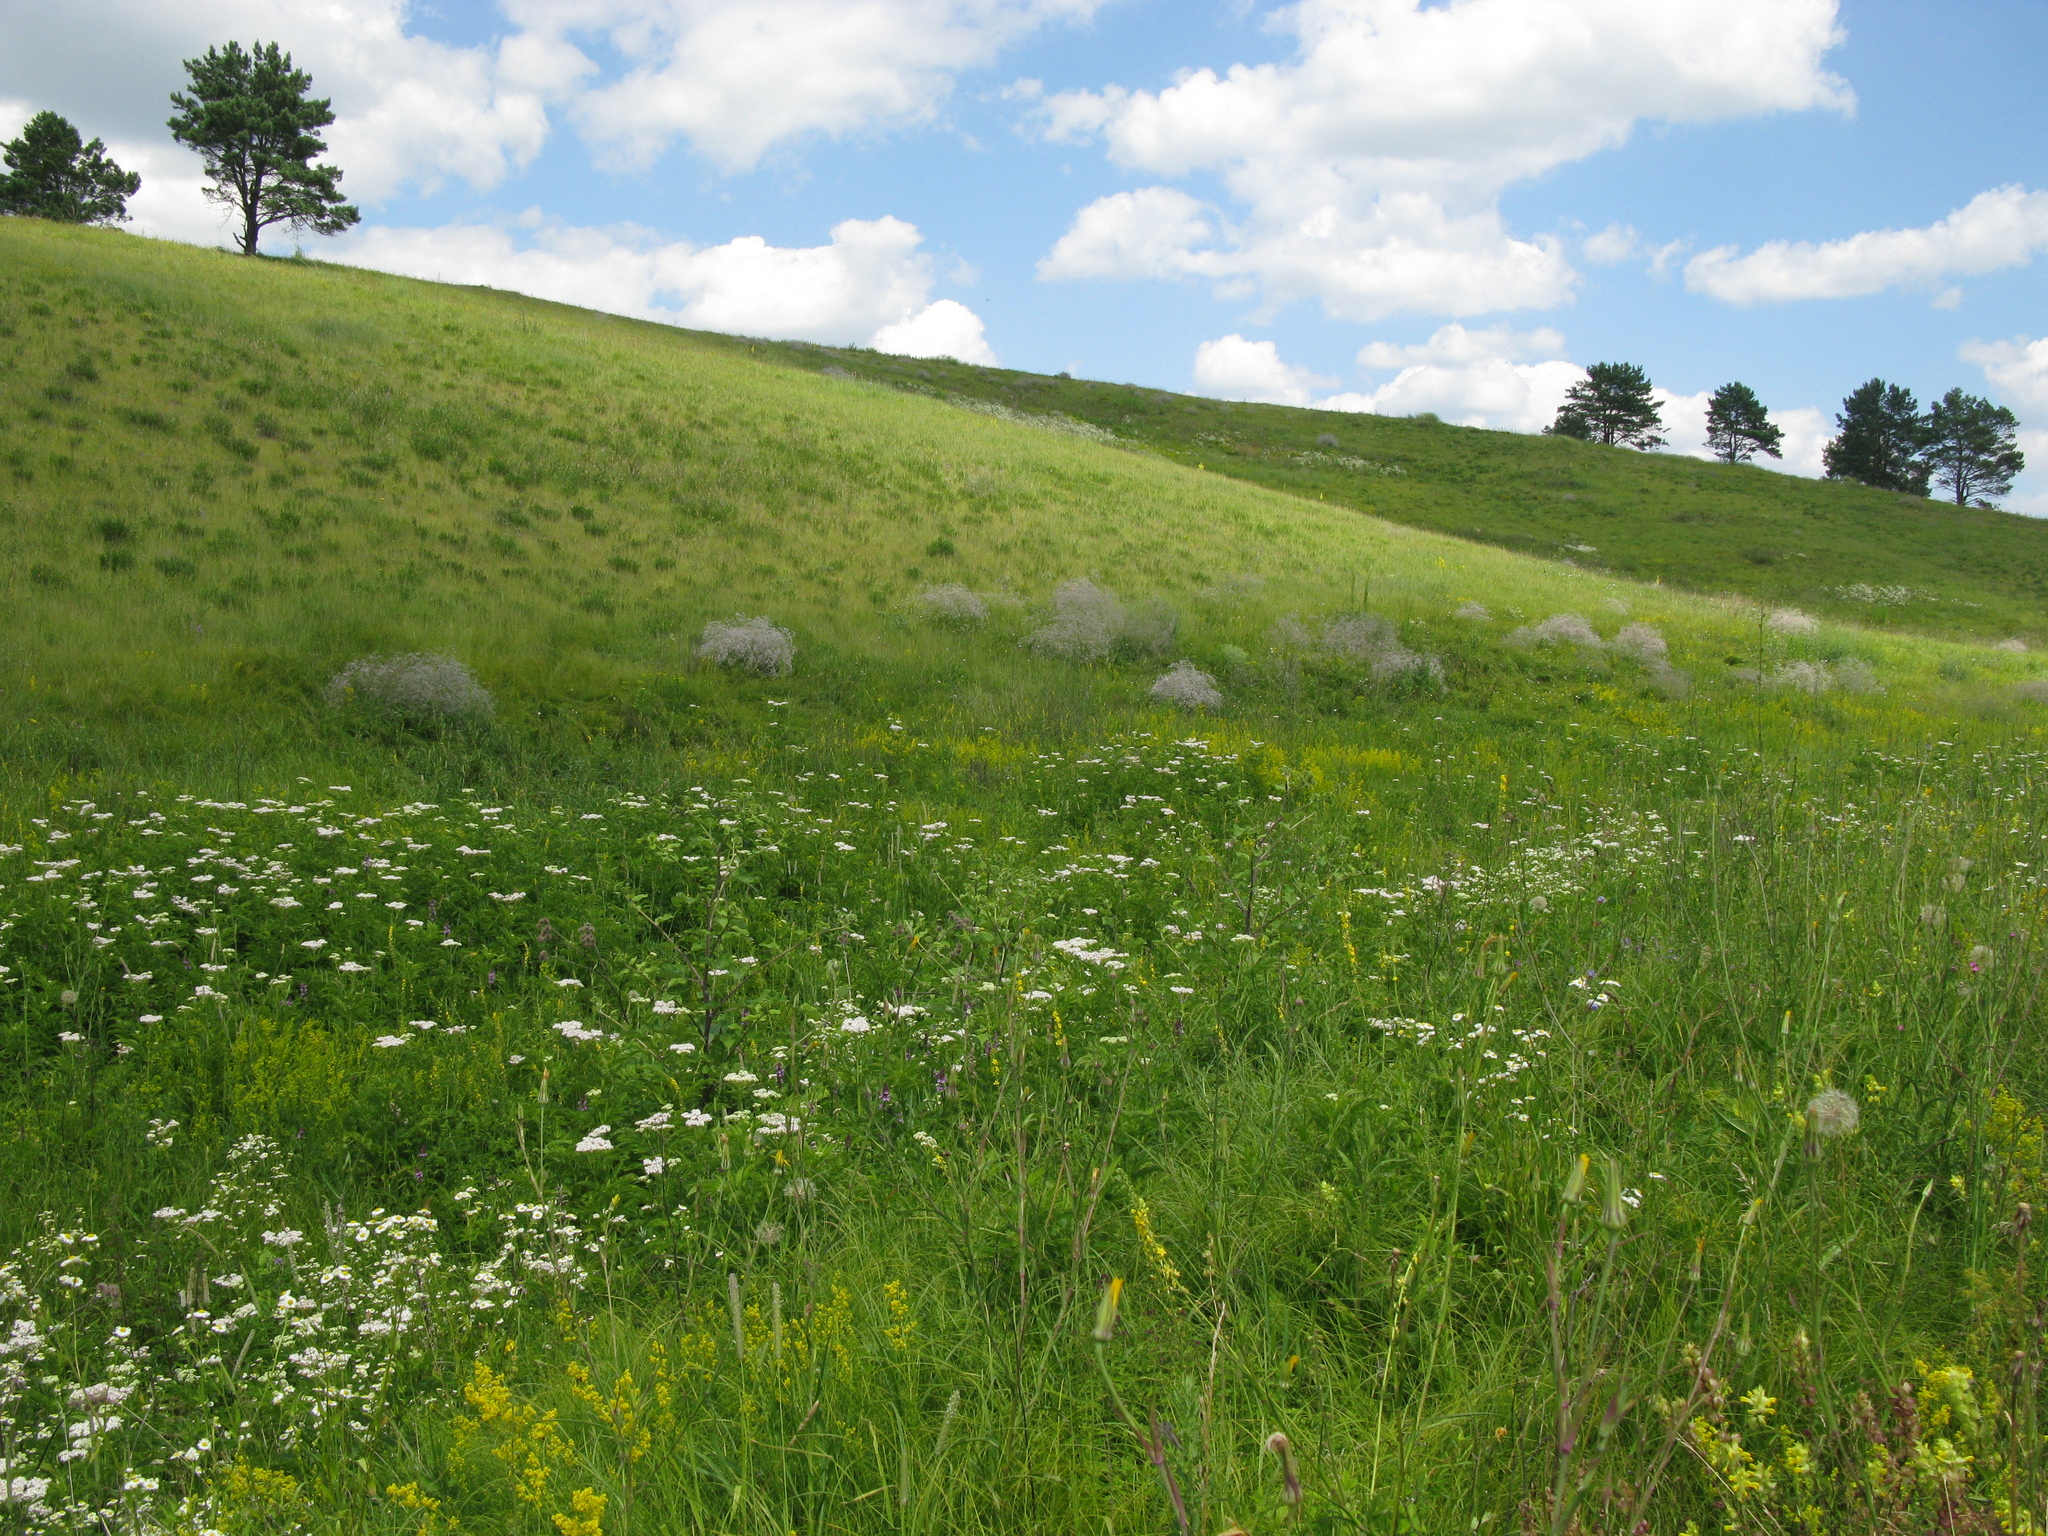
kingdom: Plantae
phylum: Tracheophyta
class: Magnoliopsida
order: Dipsacales
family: Viburnaceae
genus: Sambucus
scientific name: Sambucus ebulus
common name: Dwarf elder
